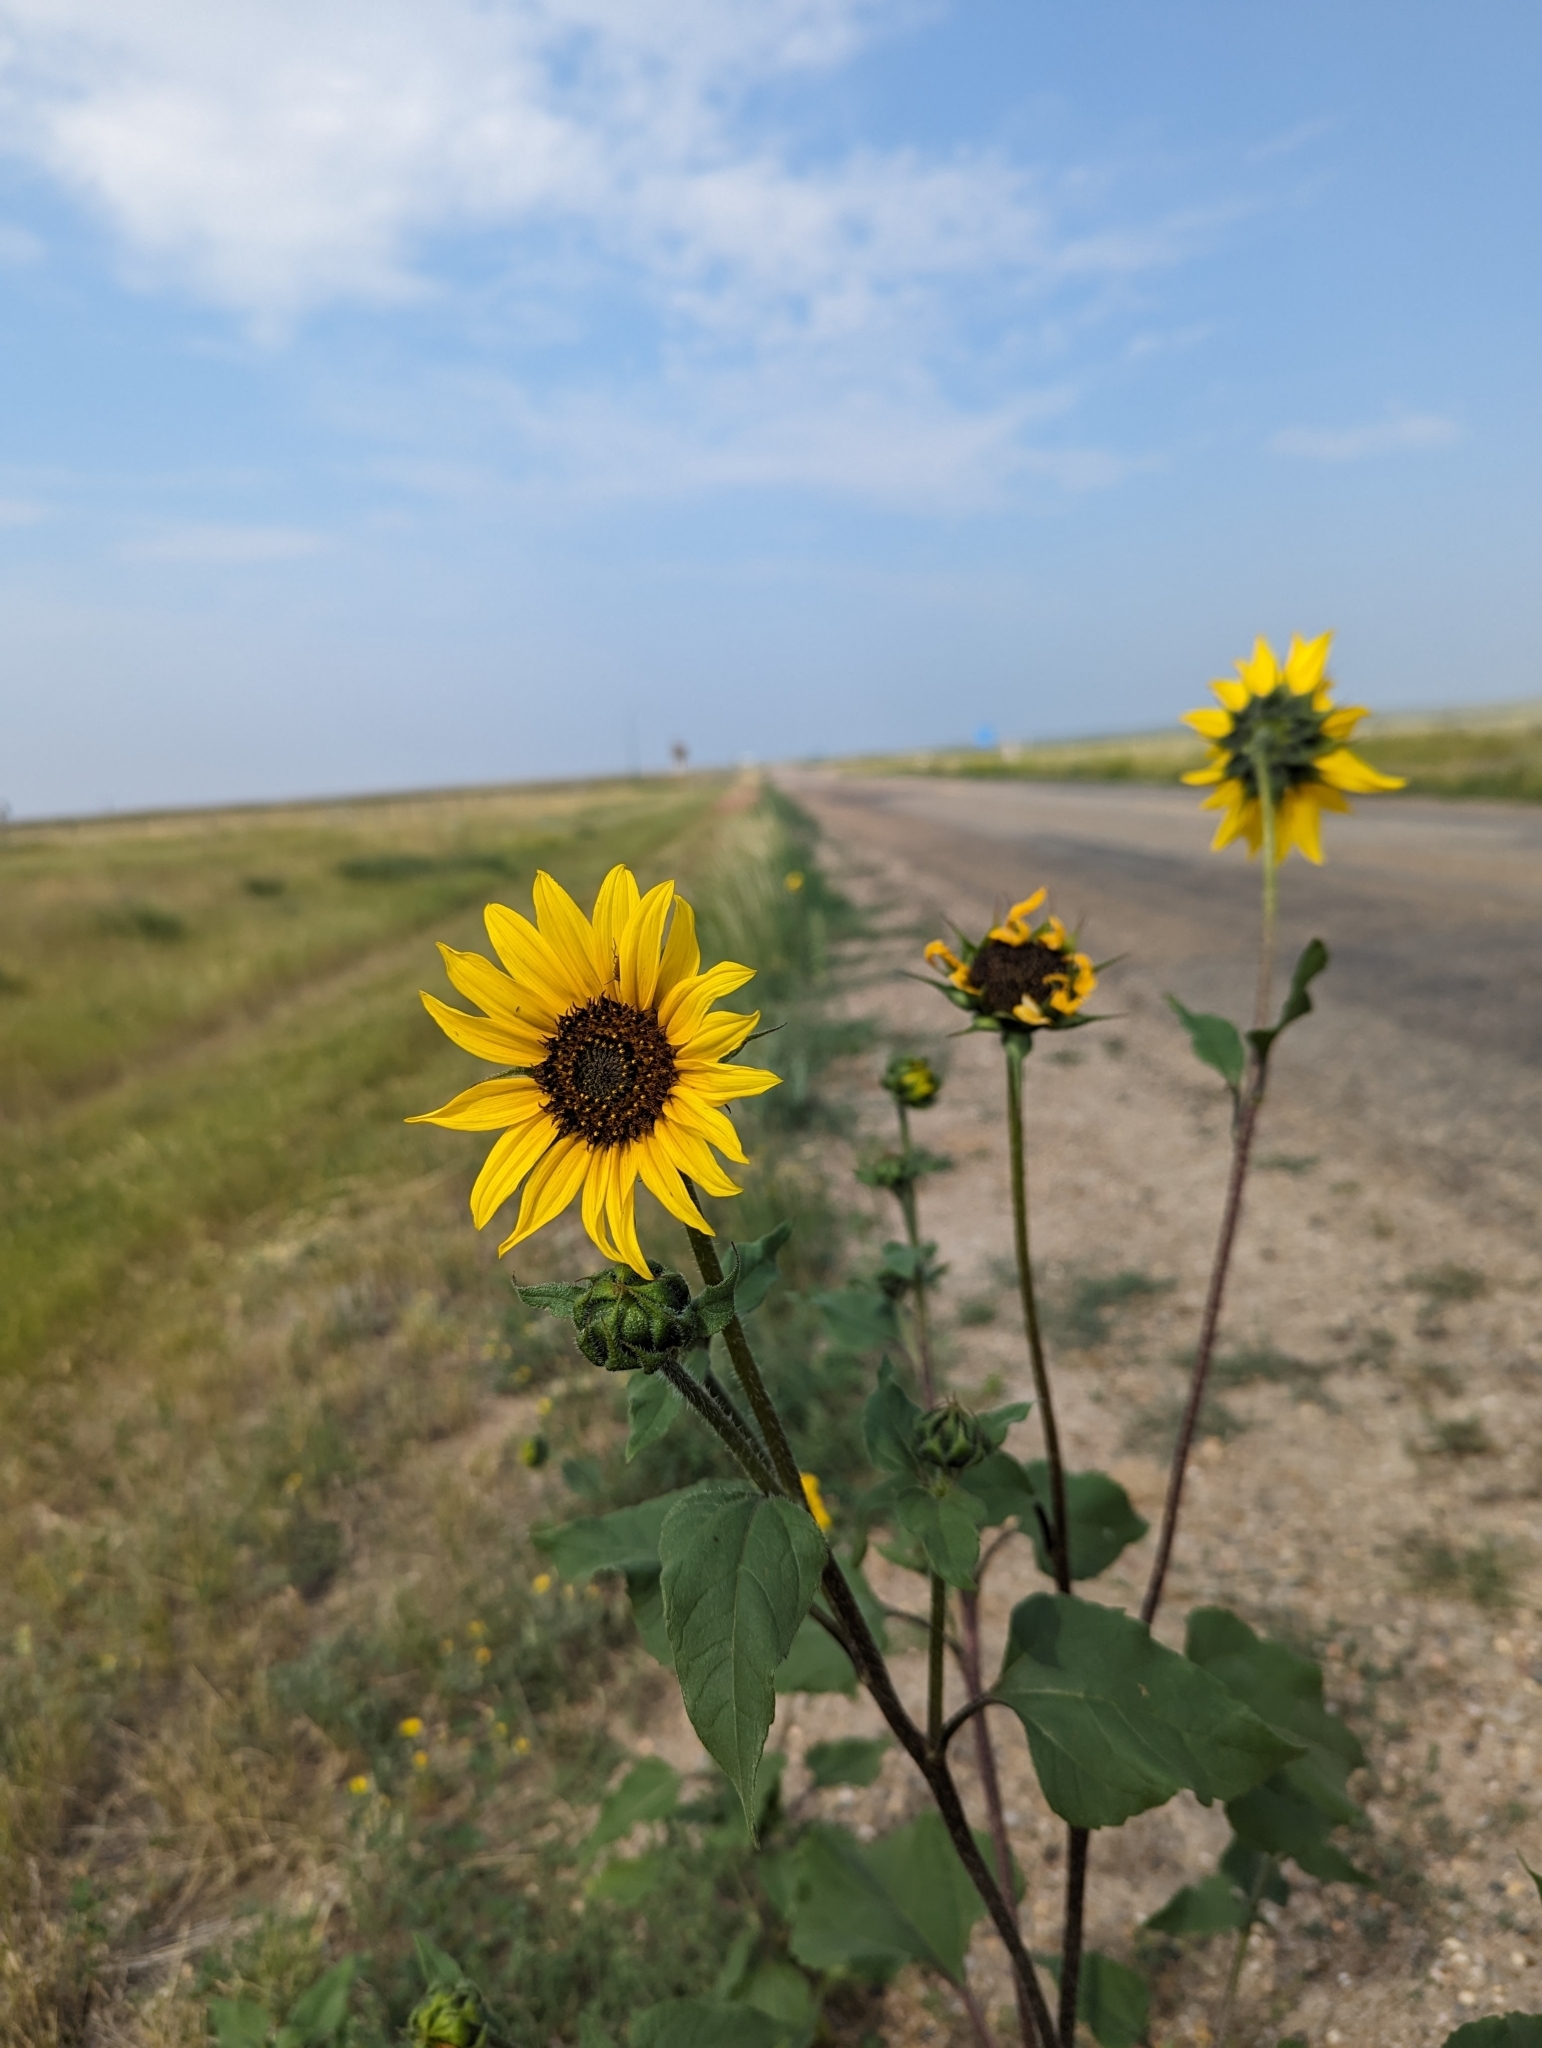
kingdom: Plantae
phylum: Tracheophyta
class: Magnoliopsida
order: Asterales
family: Asteraceae
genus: Helianthus
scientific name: Helianthus annuus
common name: Sunflower
